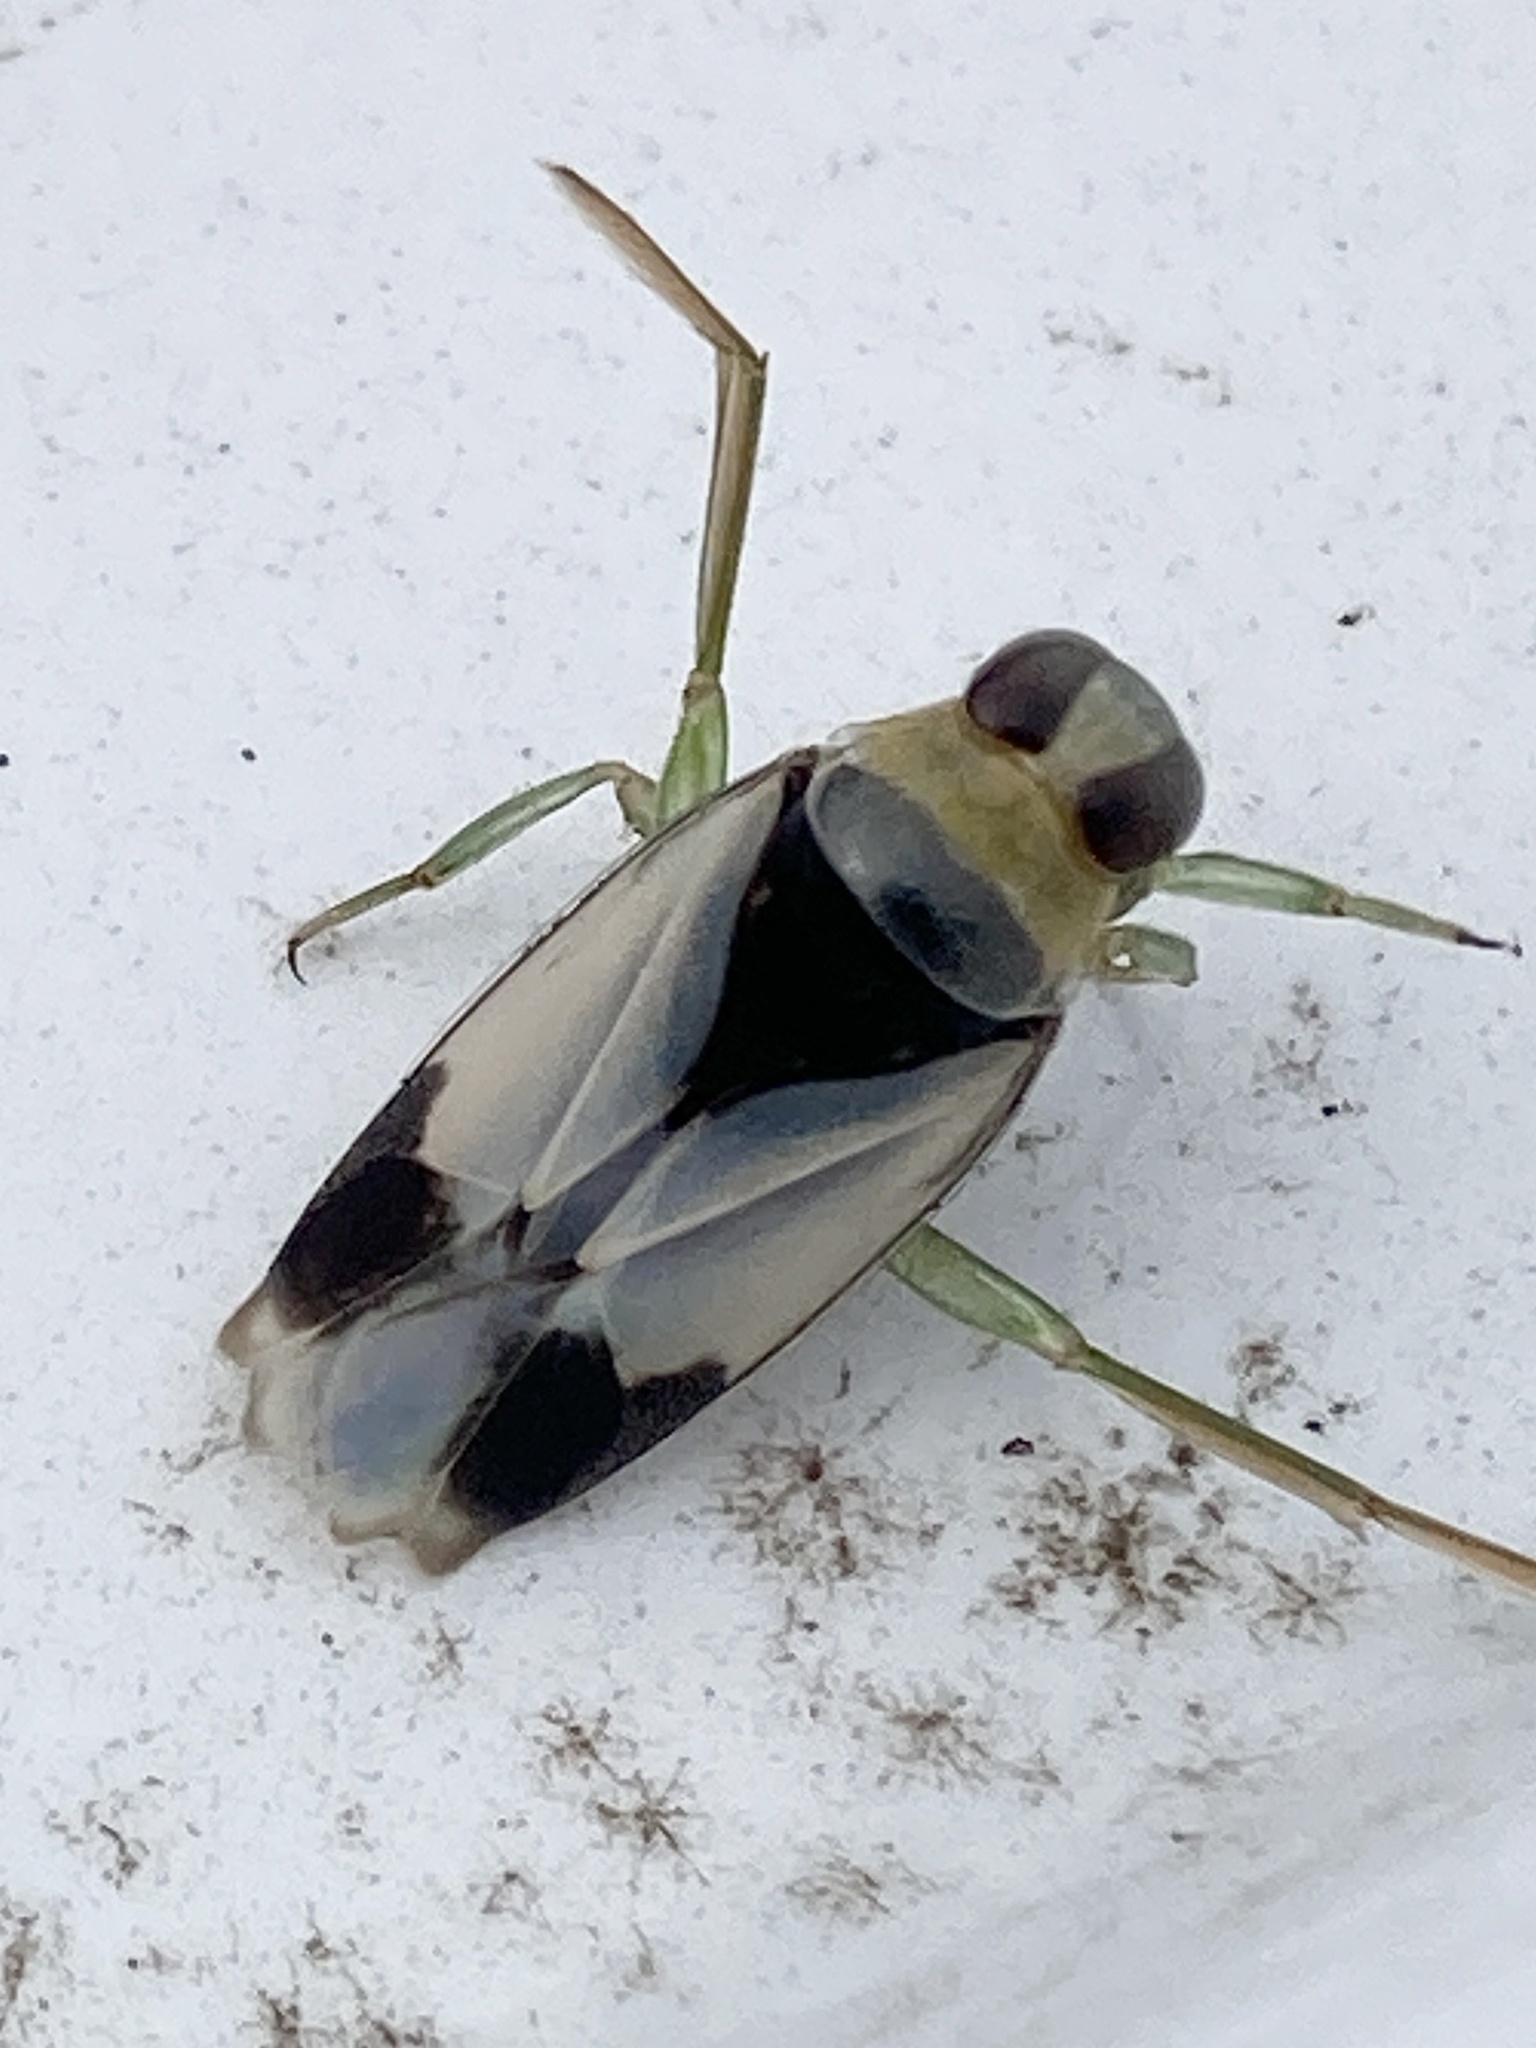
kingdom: Animalia
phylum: Arthropoda
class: Insecta
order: Hemiptera
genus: Paranecta
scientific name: Paranecta
